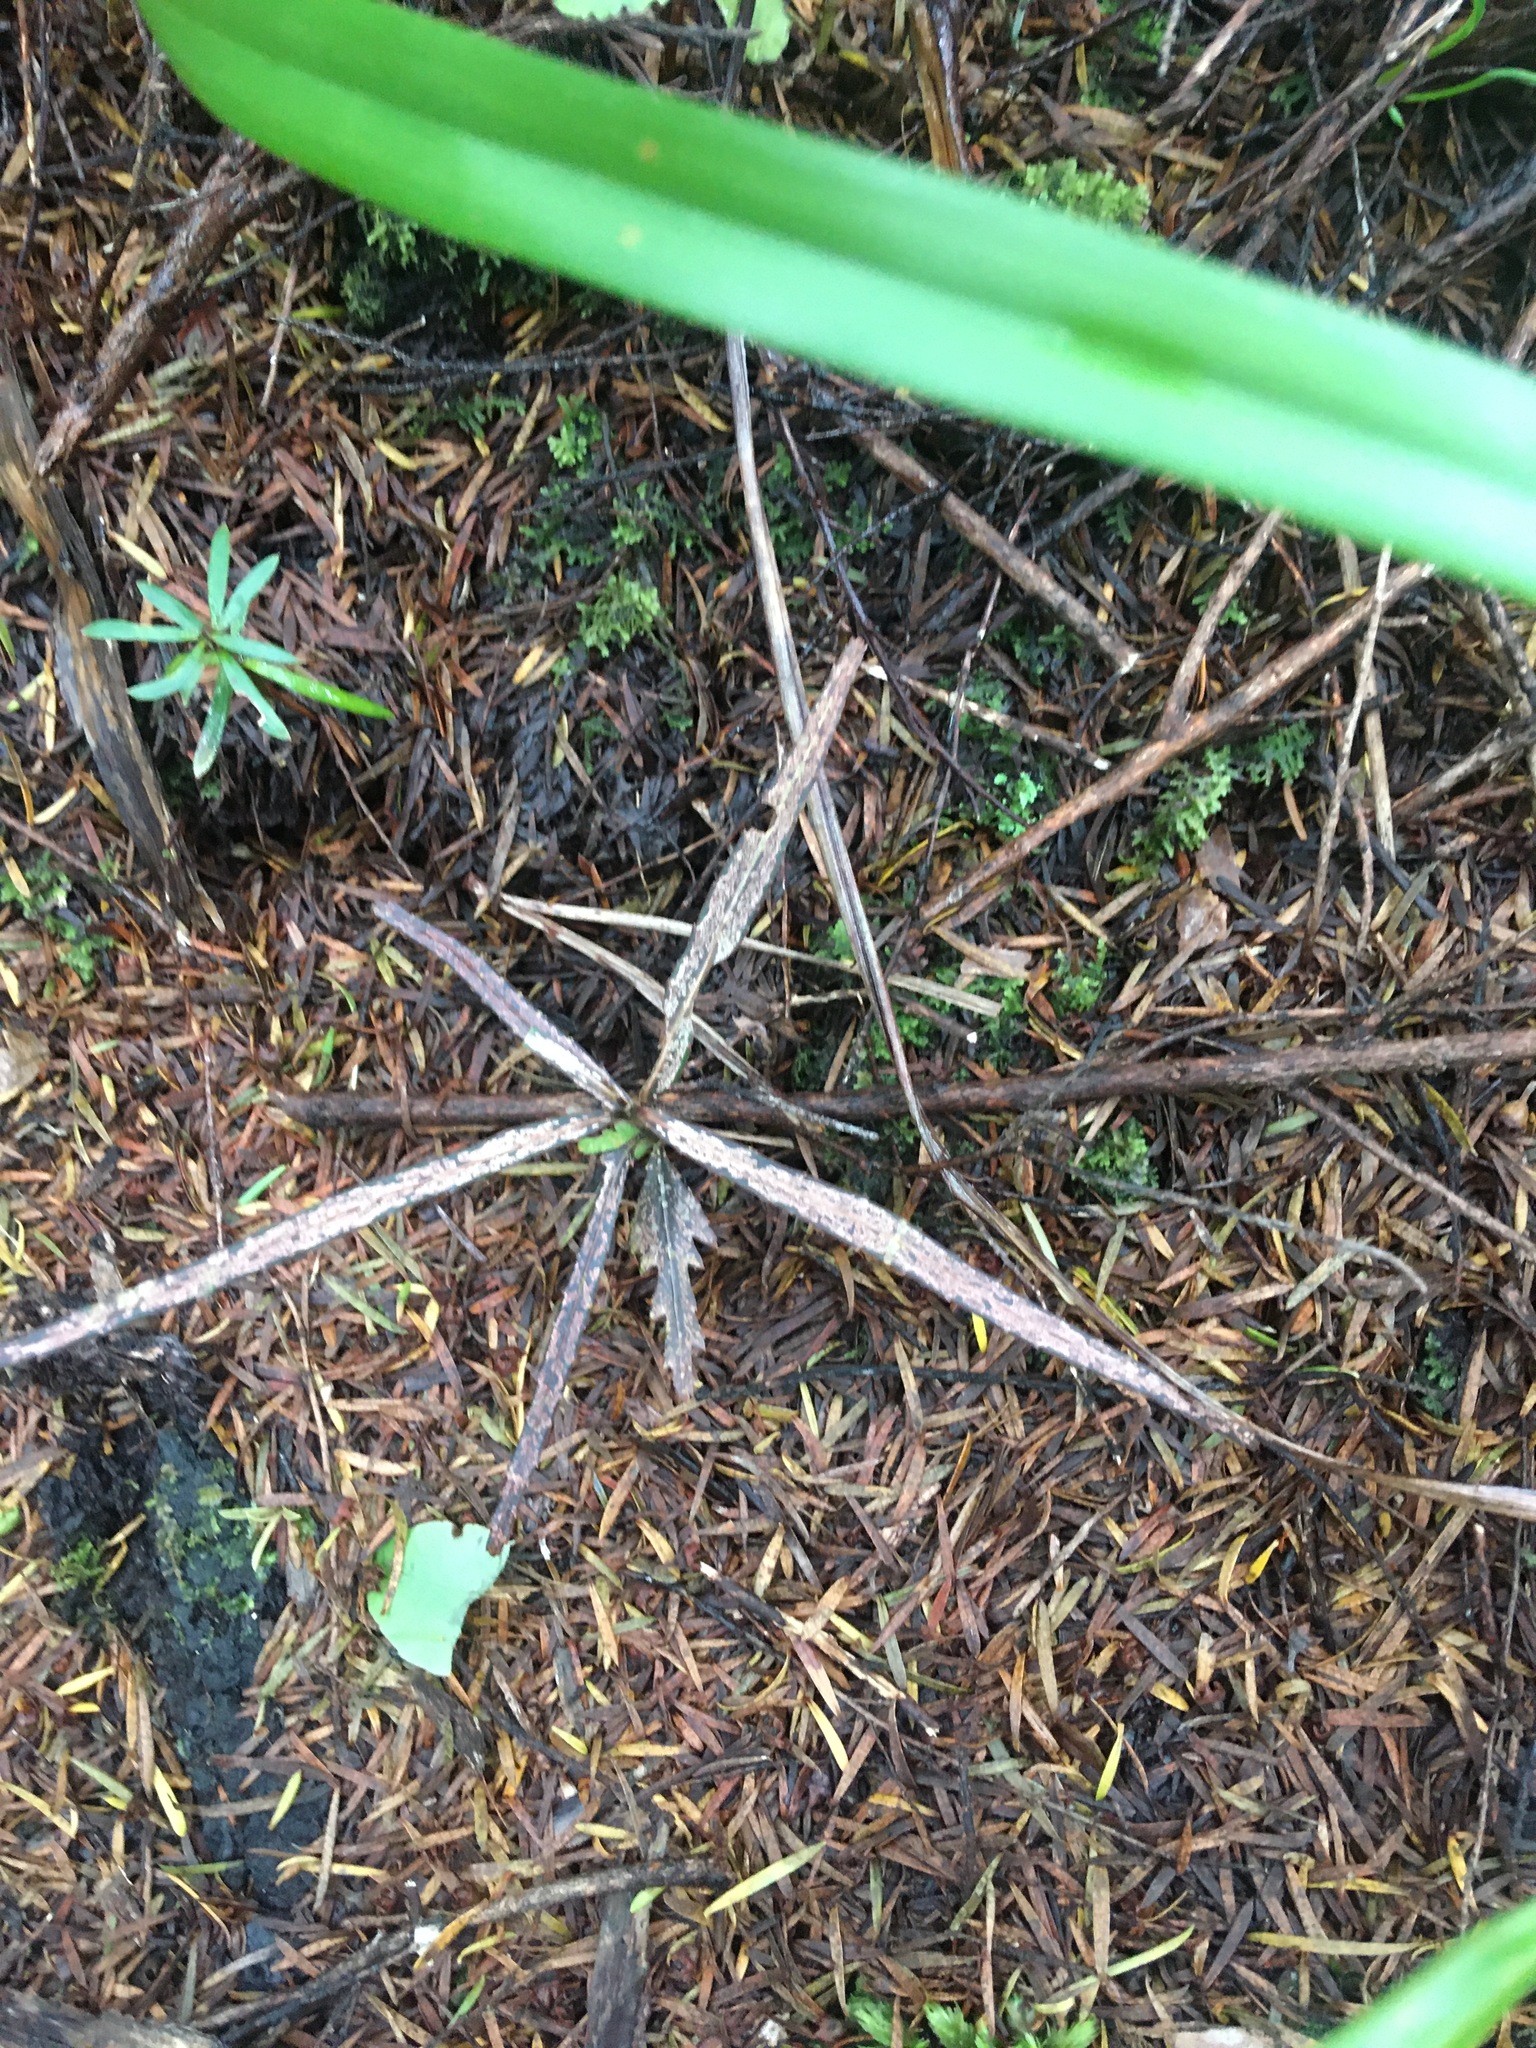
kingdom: Plantae
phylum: Tracheophyta
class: Magnoliopsida
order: Apiales
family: Araliaceae
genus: Pseudopanax
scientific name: Pseudopanax crassifolius
